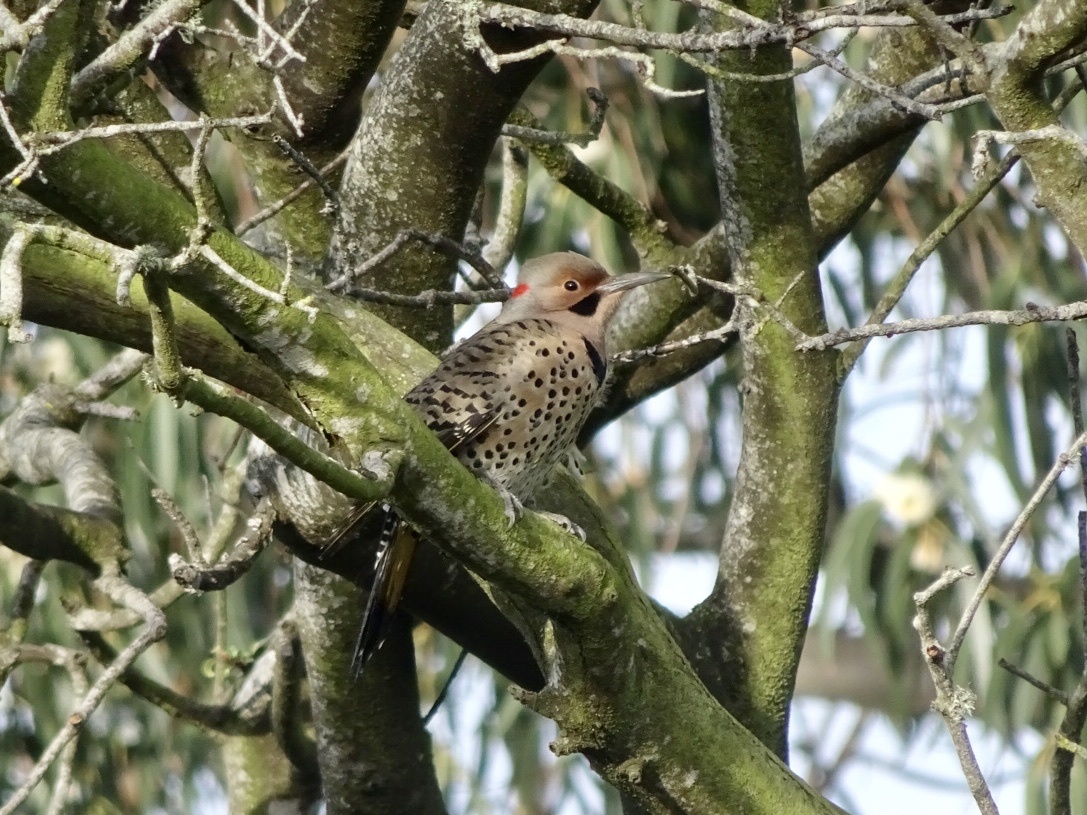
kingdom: Animalia
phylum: Chordata
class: Aves
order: Piciformes
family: Picidae
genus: Colaptes
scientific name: Colaptes auratus
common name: Northern flicker
